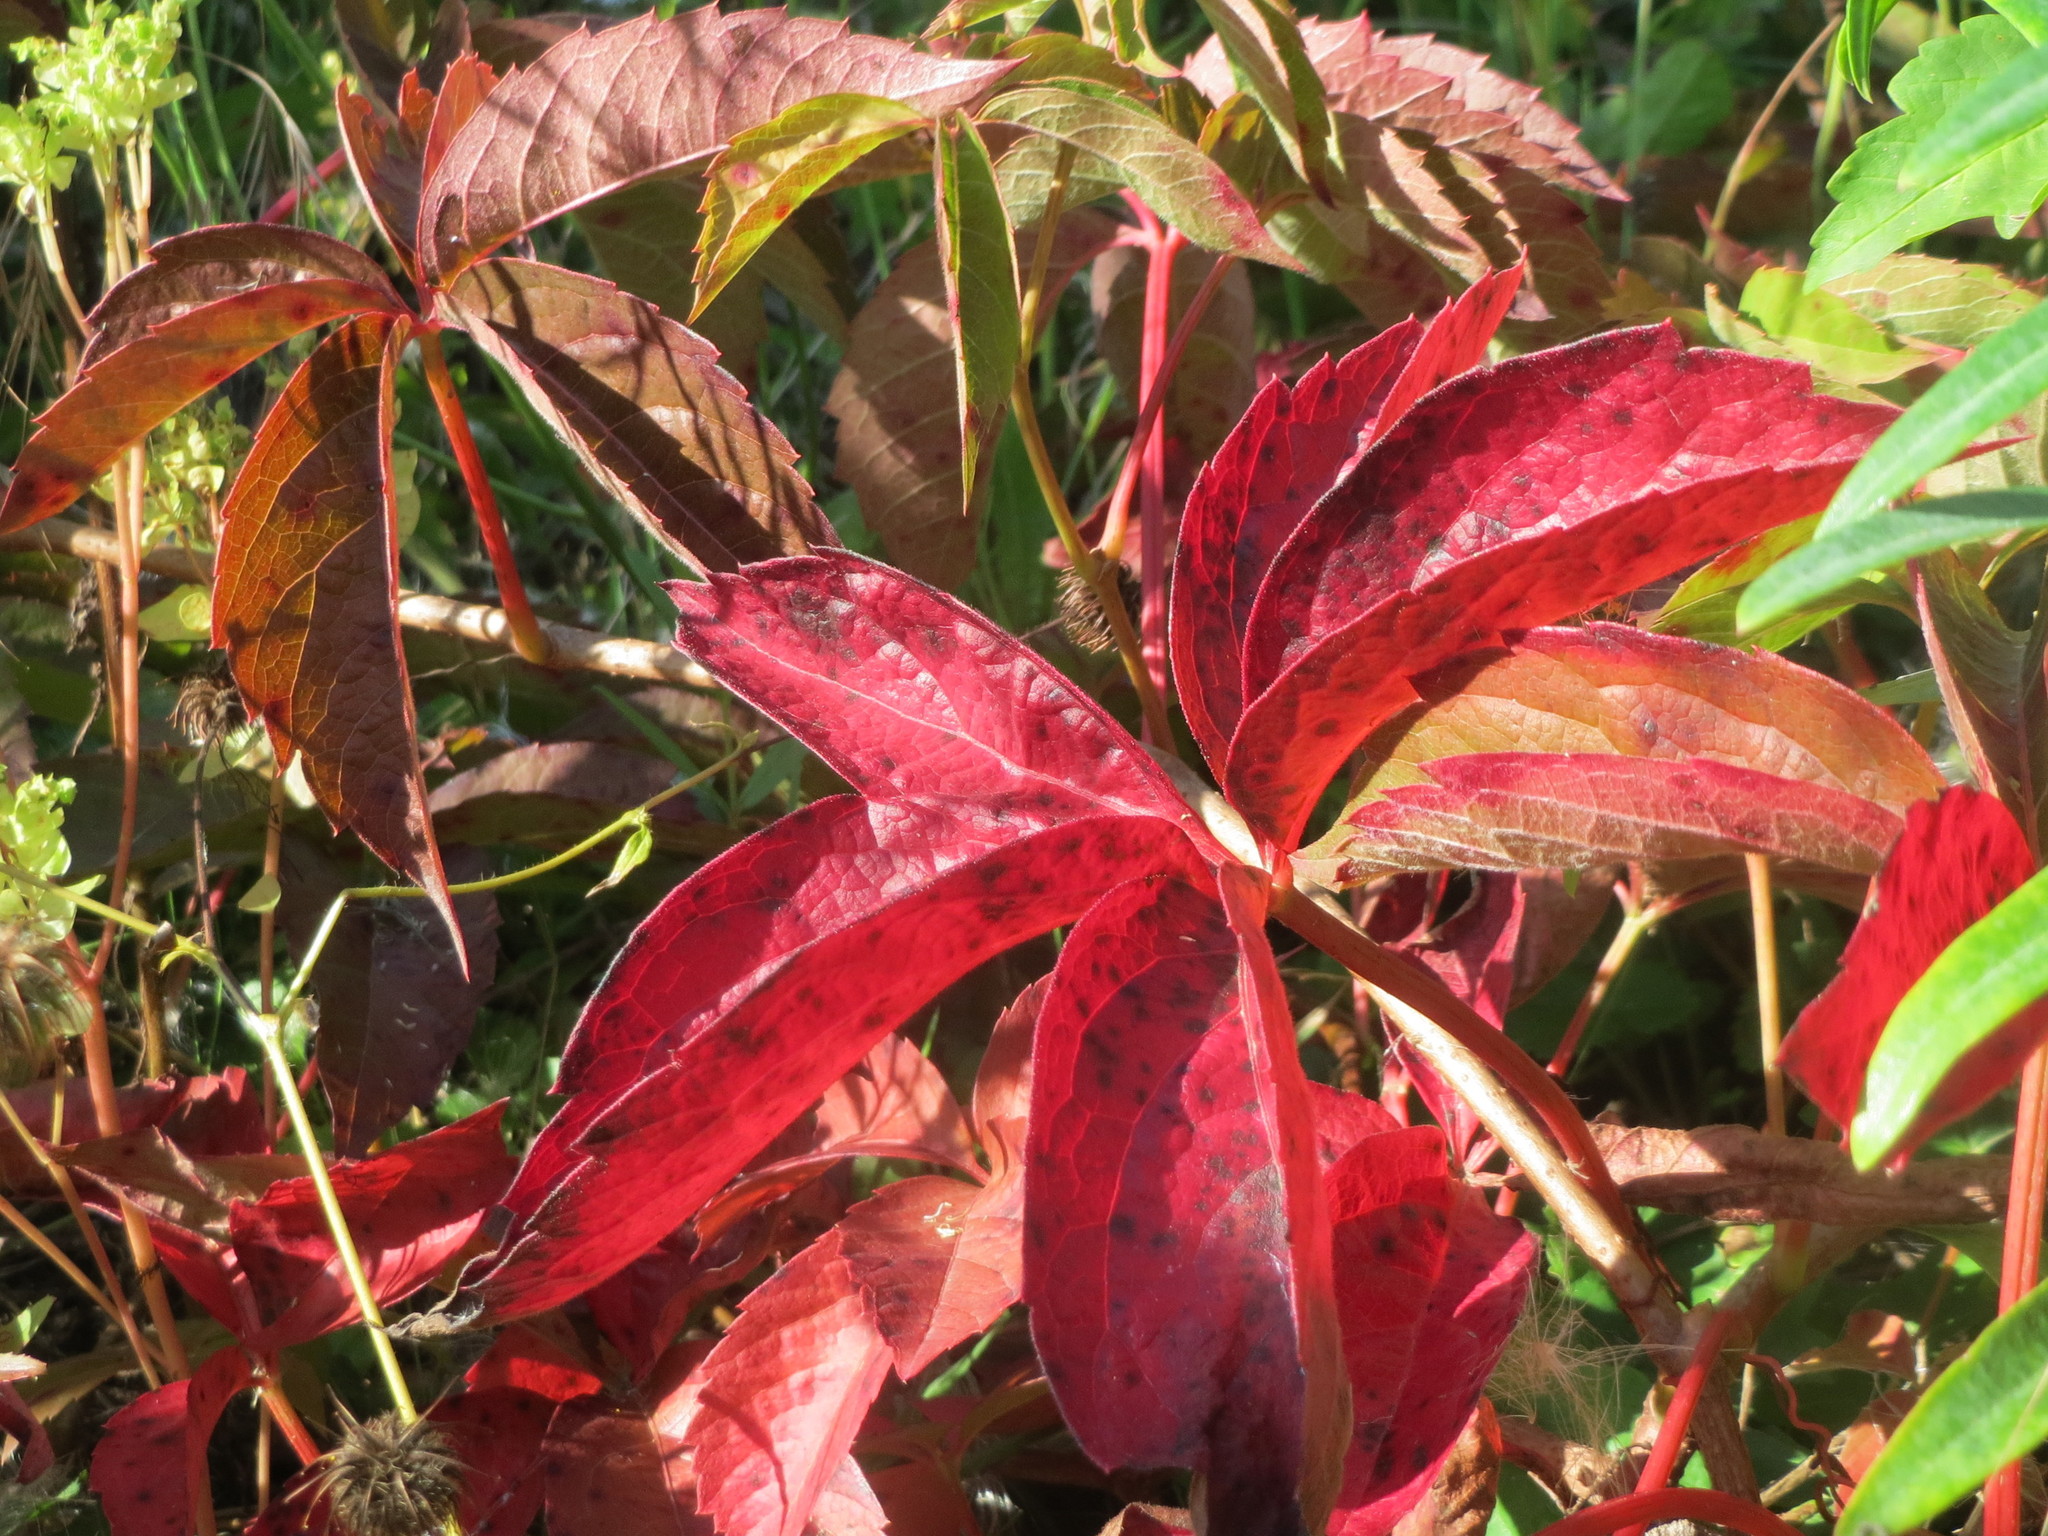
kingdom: Plantae
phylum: Tracheophyta
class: Magnoliopsida
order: Vitales
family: Vitaceae
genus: Parthenocissus
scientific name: Parthenocissus quinquefolia
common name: Virginia-creeper
